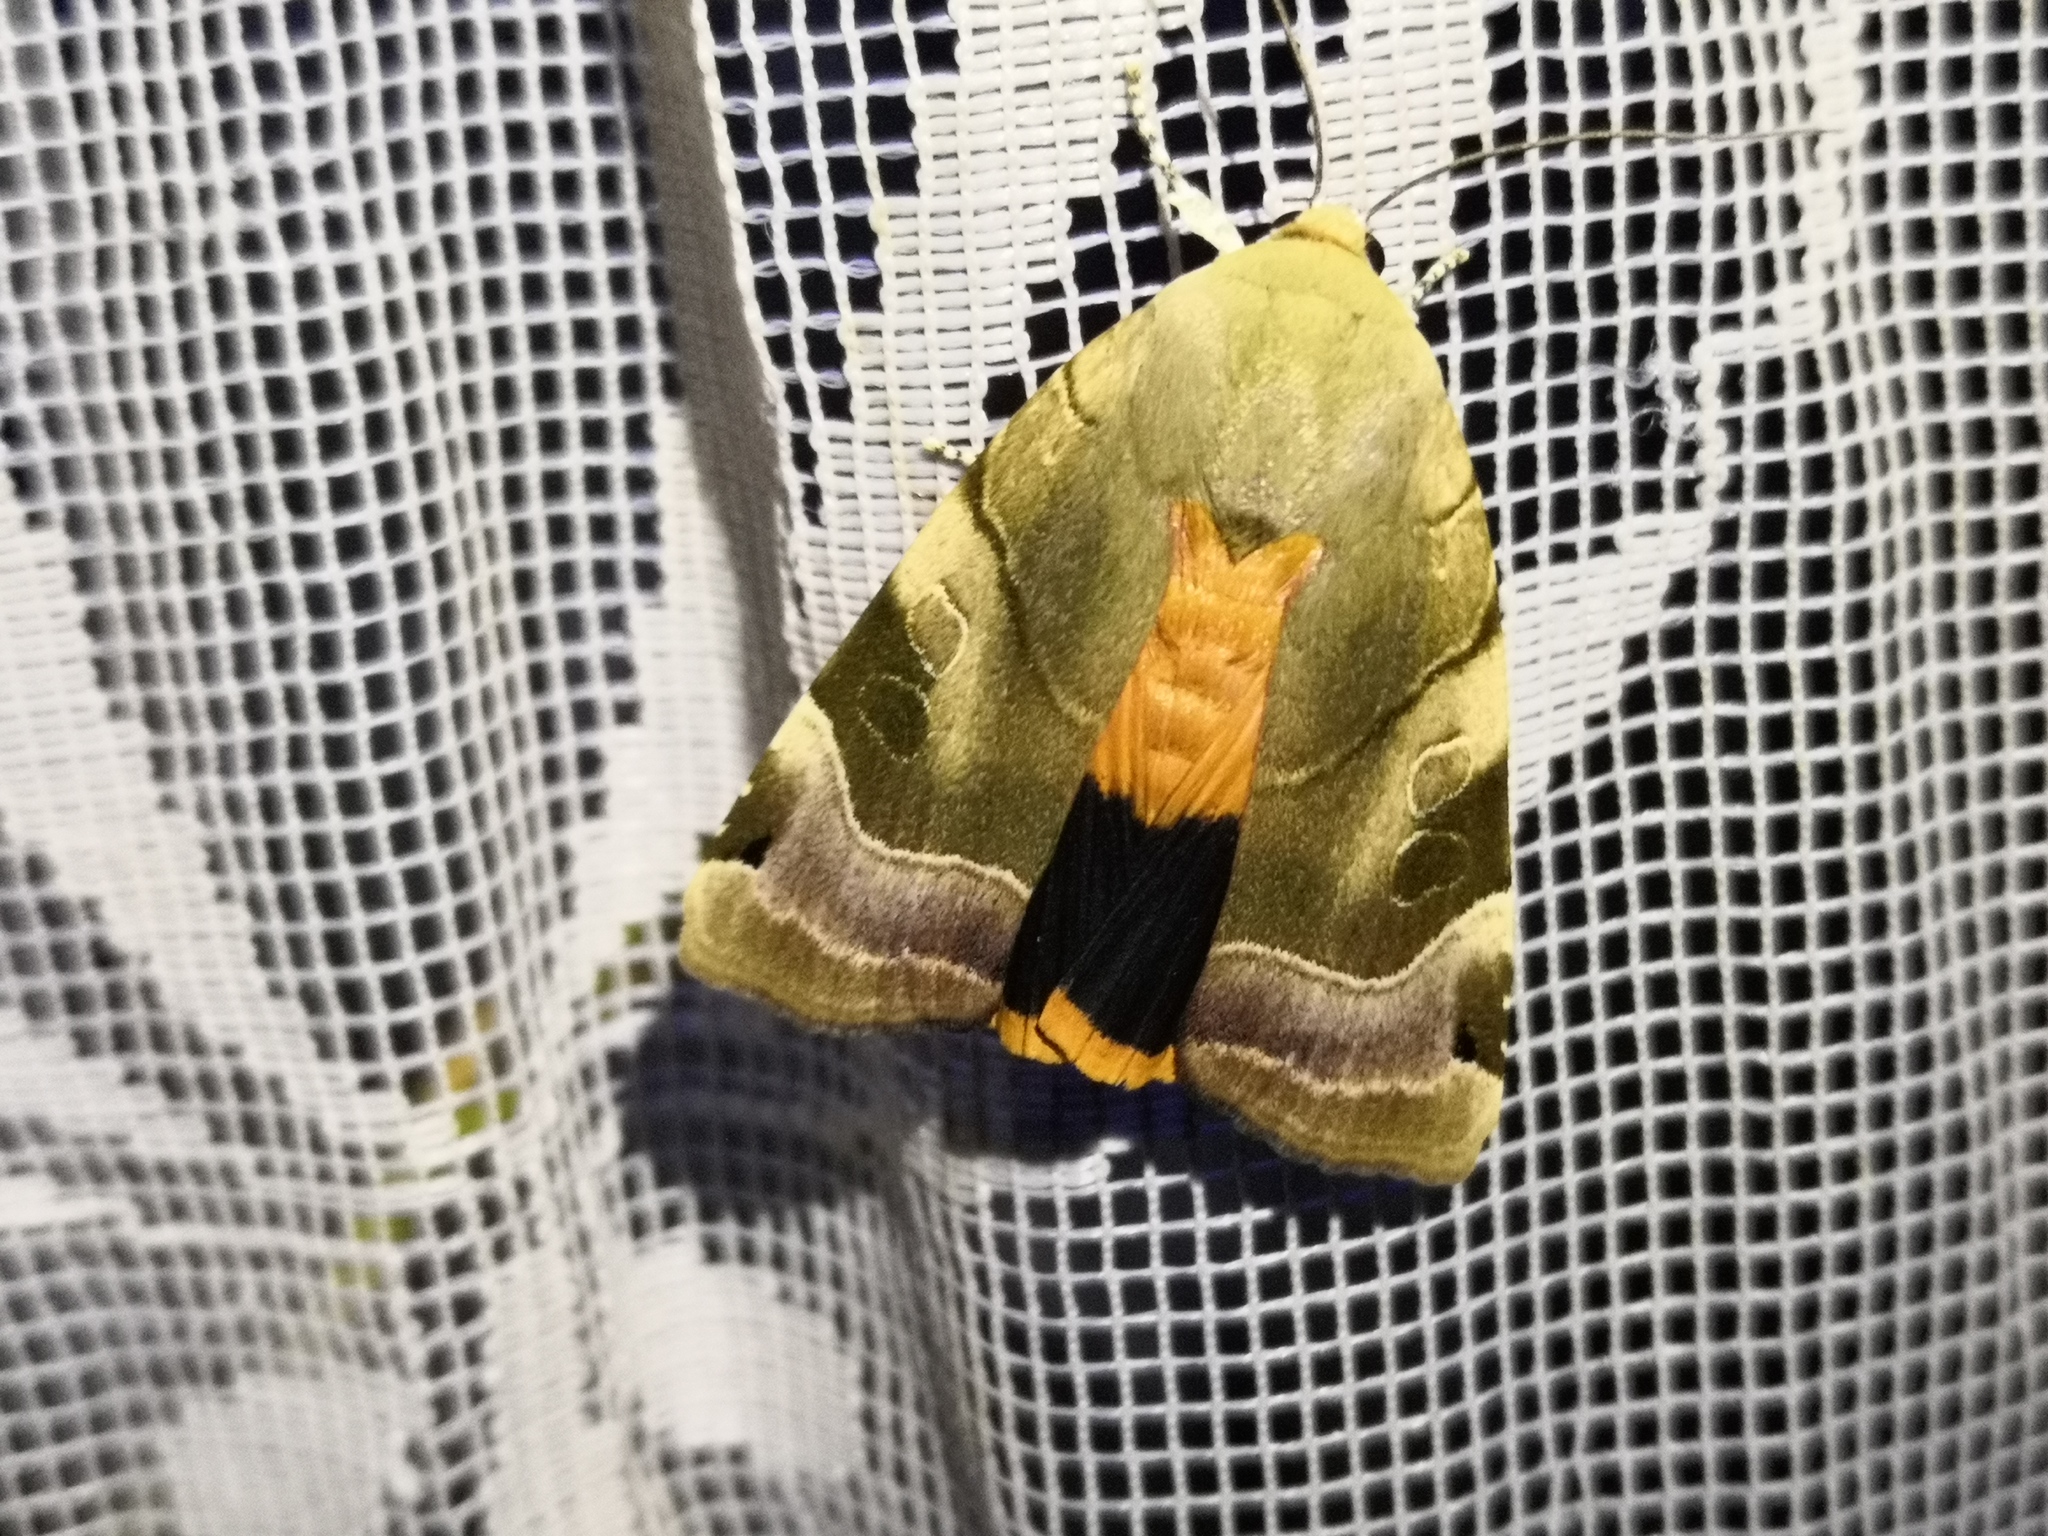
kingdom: Animalia
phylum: Arthropoda
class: Insecta
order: Lepidoptera
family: Noctuidae
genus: Noctua
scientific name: Noctua fimbriata
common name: Broad-bordered yellow underwing
